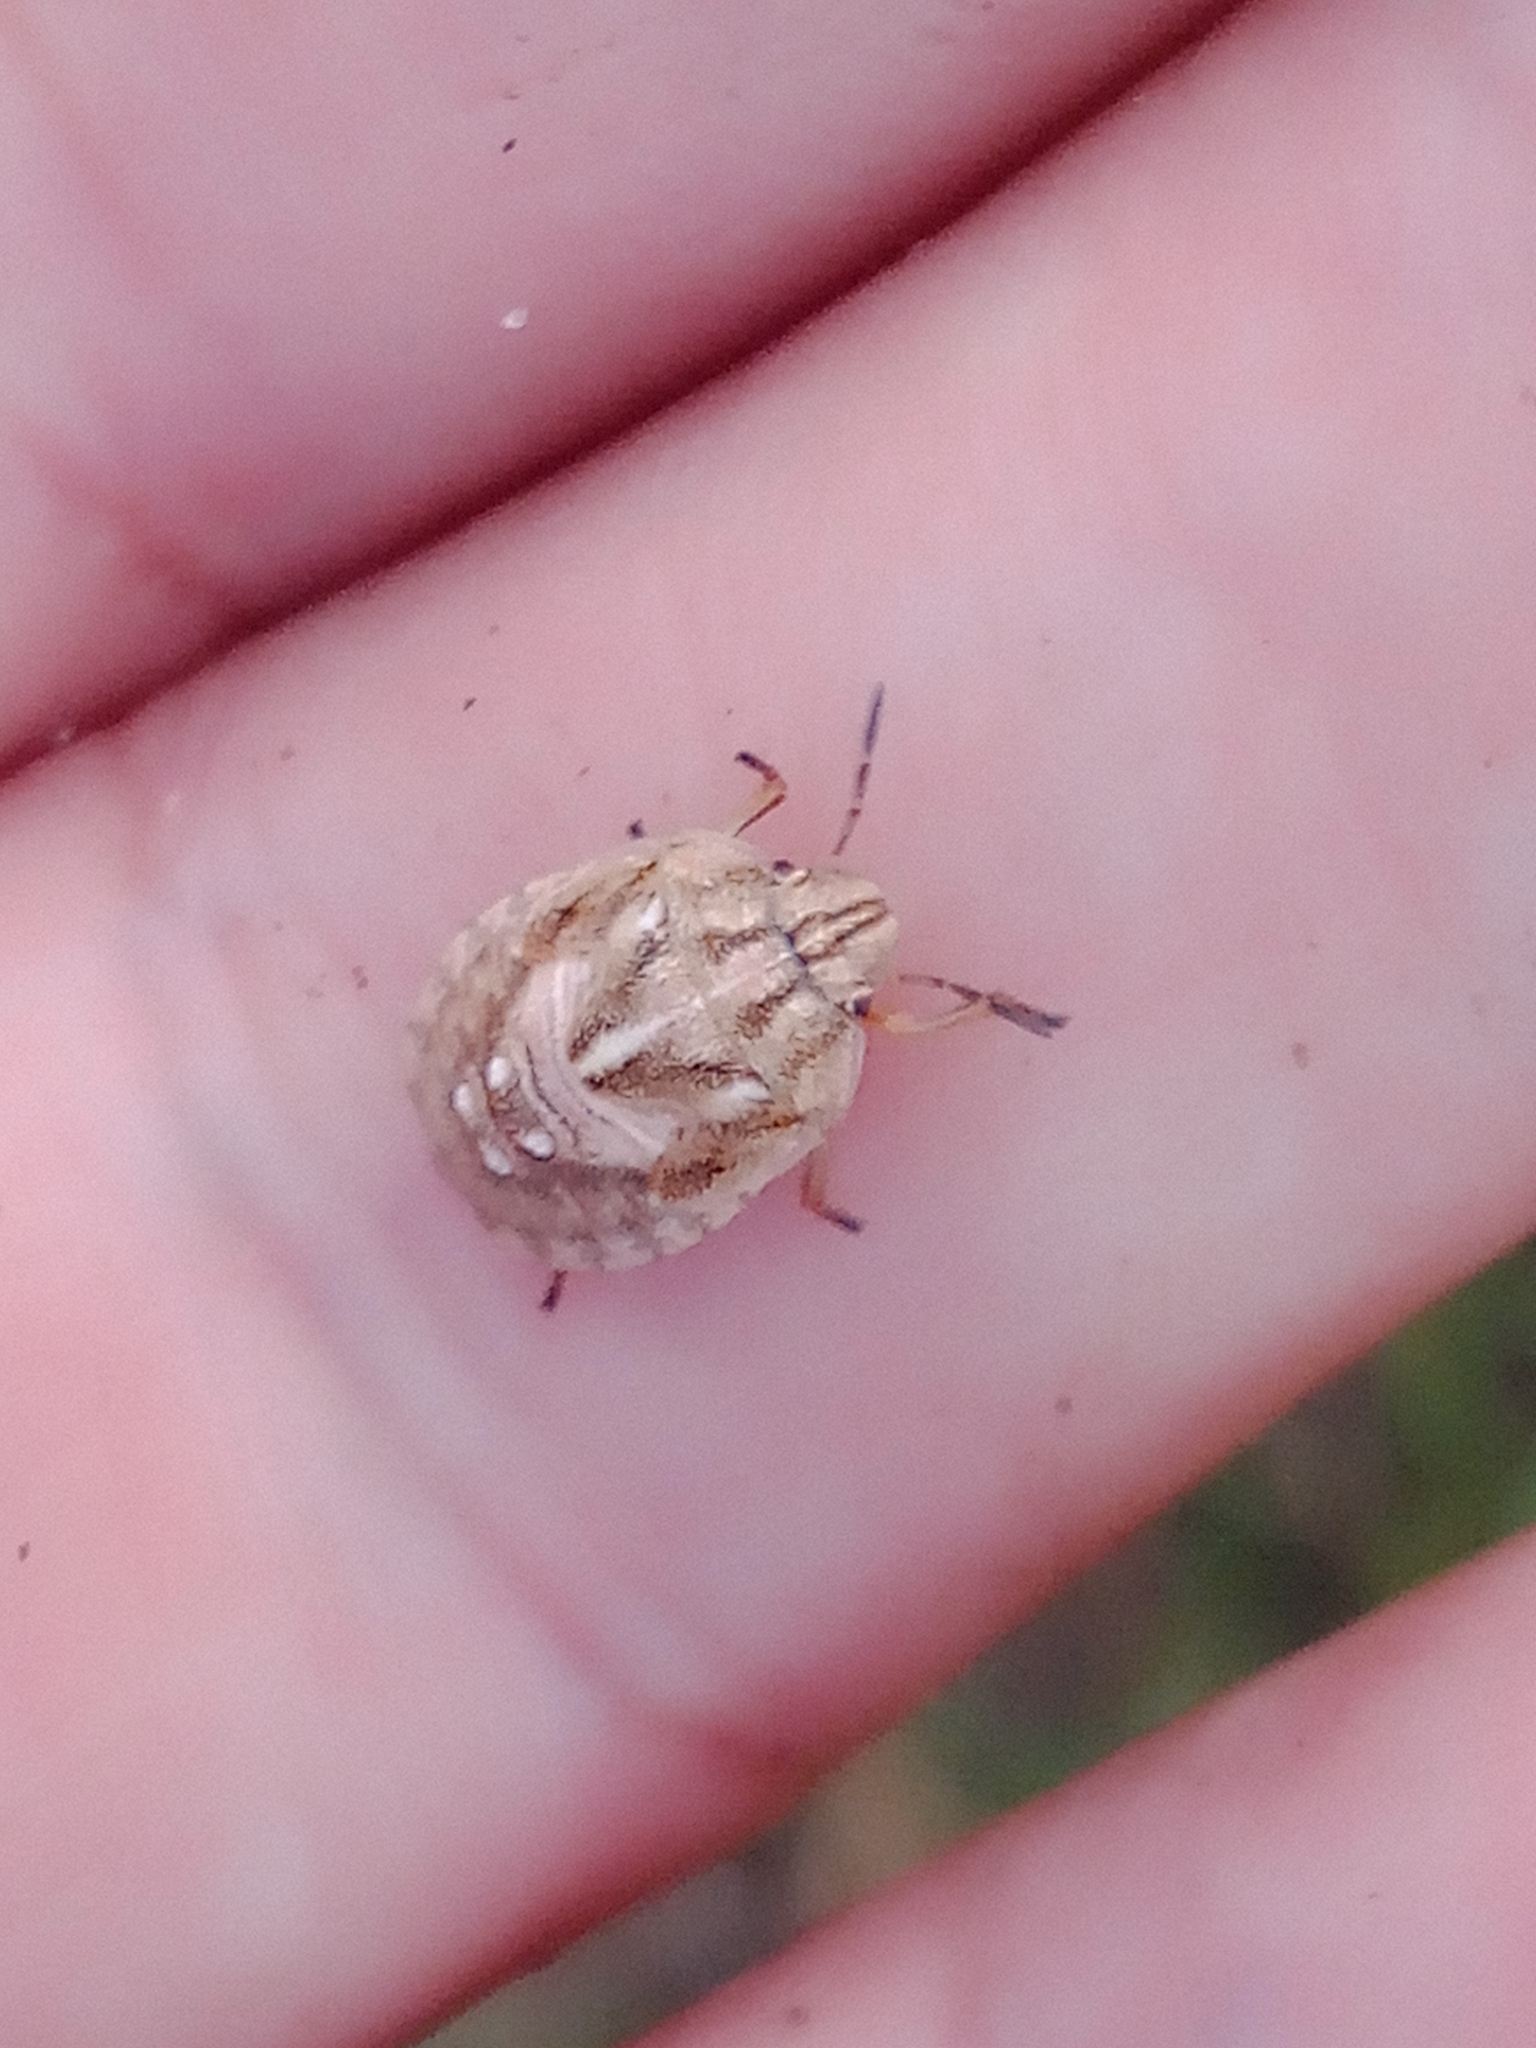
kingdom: Animalia
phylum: Arthropoda
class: Insecta
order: Hemiptera
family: Scutelleridae
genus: Eurygaster
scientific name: Eurygaster testudinaria
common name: Tortoise bug
